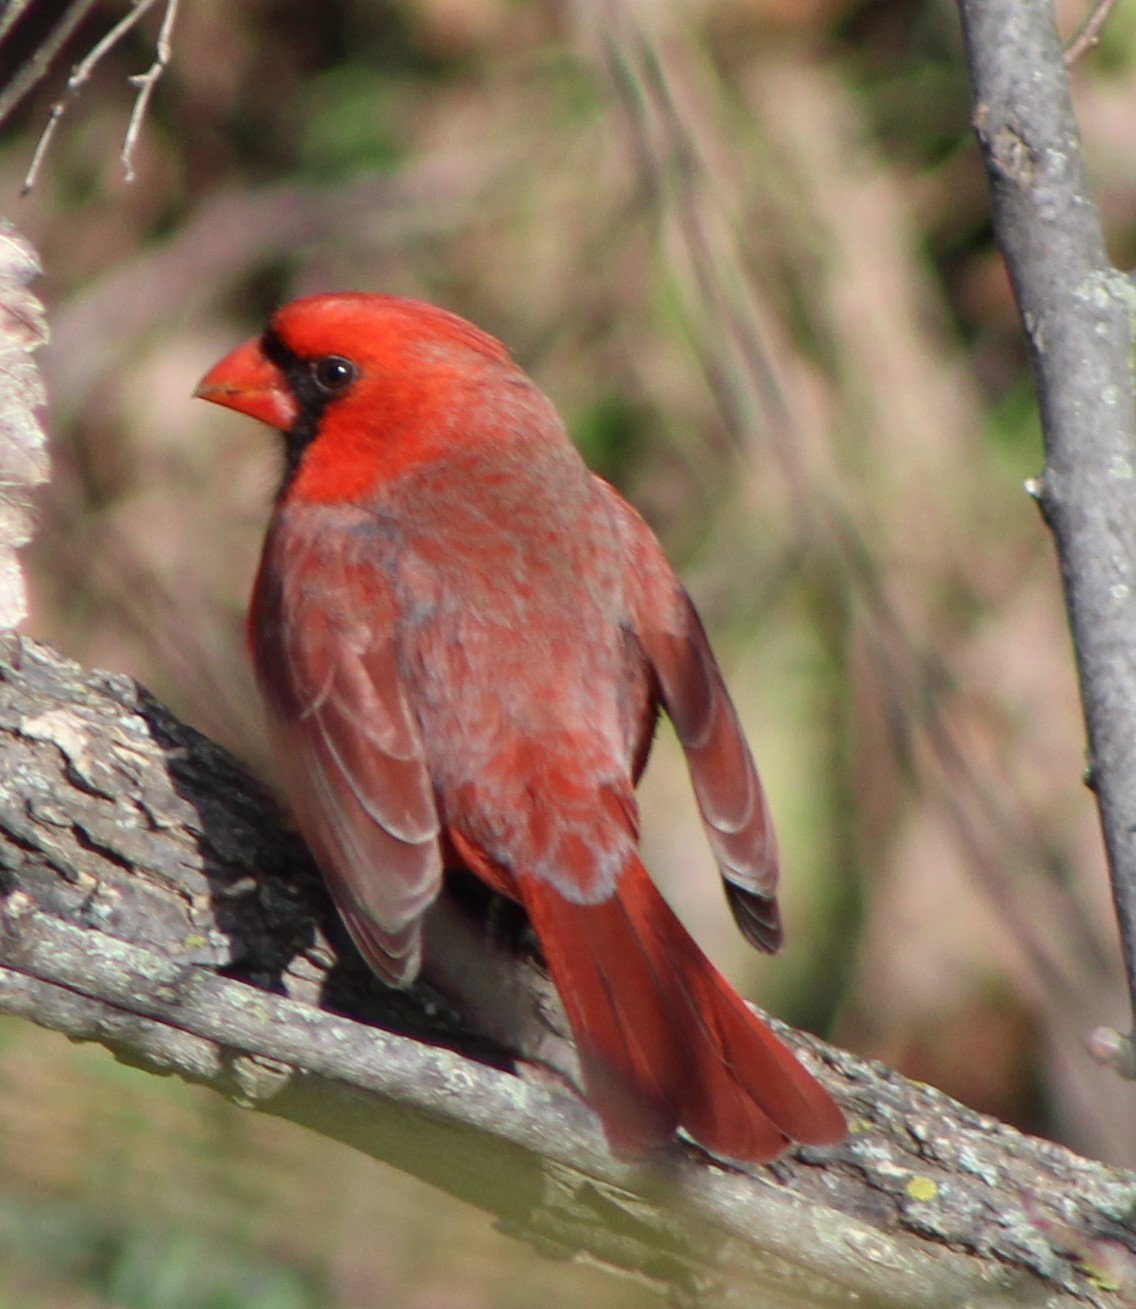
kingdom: Animalia
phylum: Chordata
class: Aves
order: Passeriformes
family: Cardinalidae
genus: Cardinalis
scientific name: Cardinalis cardinalis
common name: Northern cardinal
